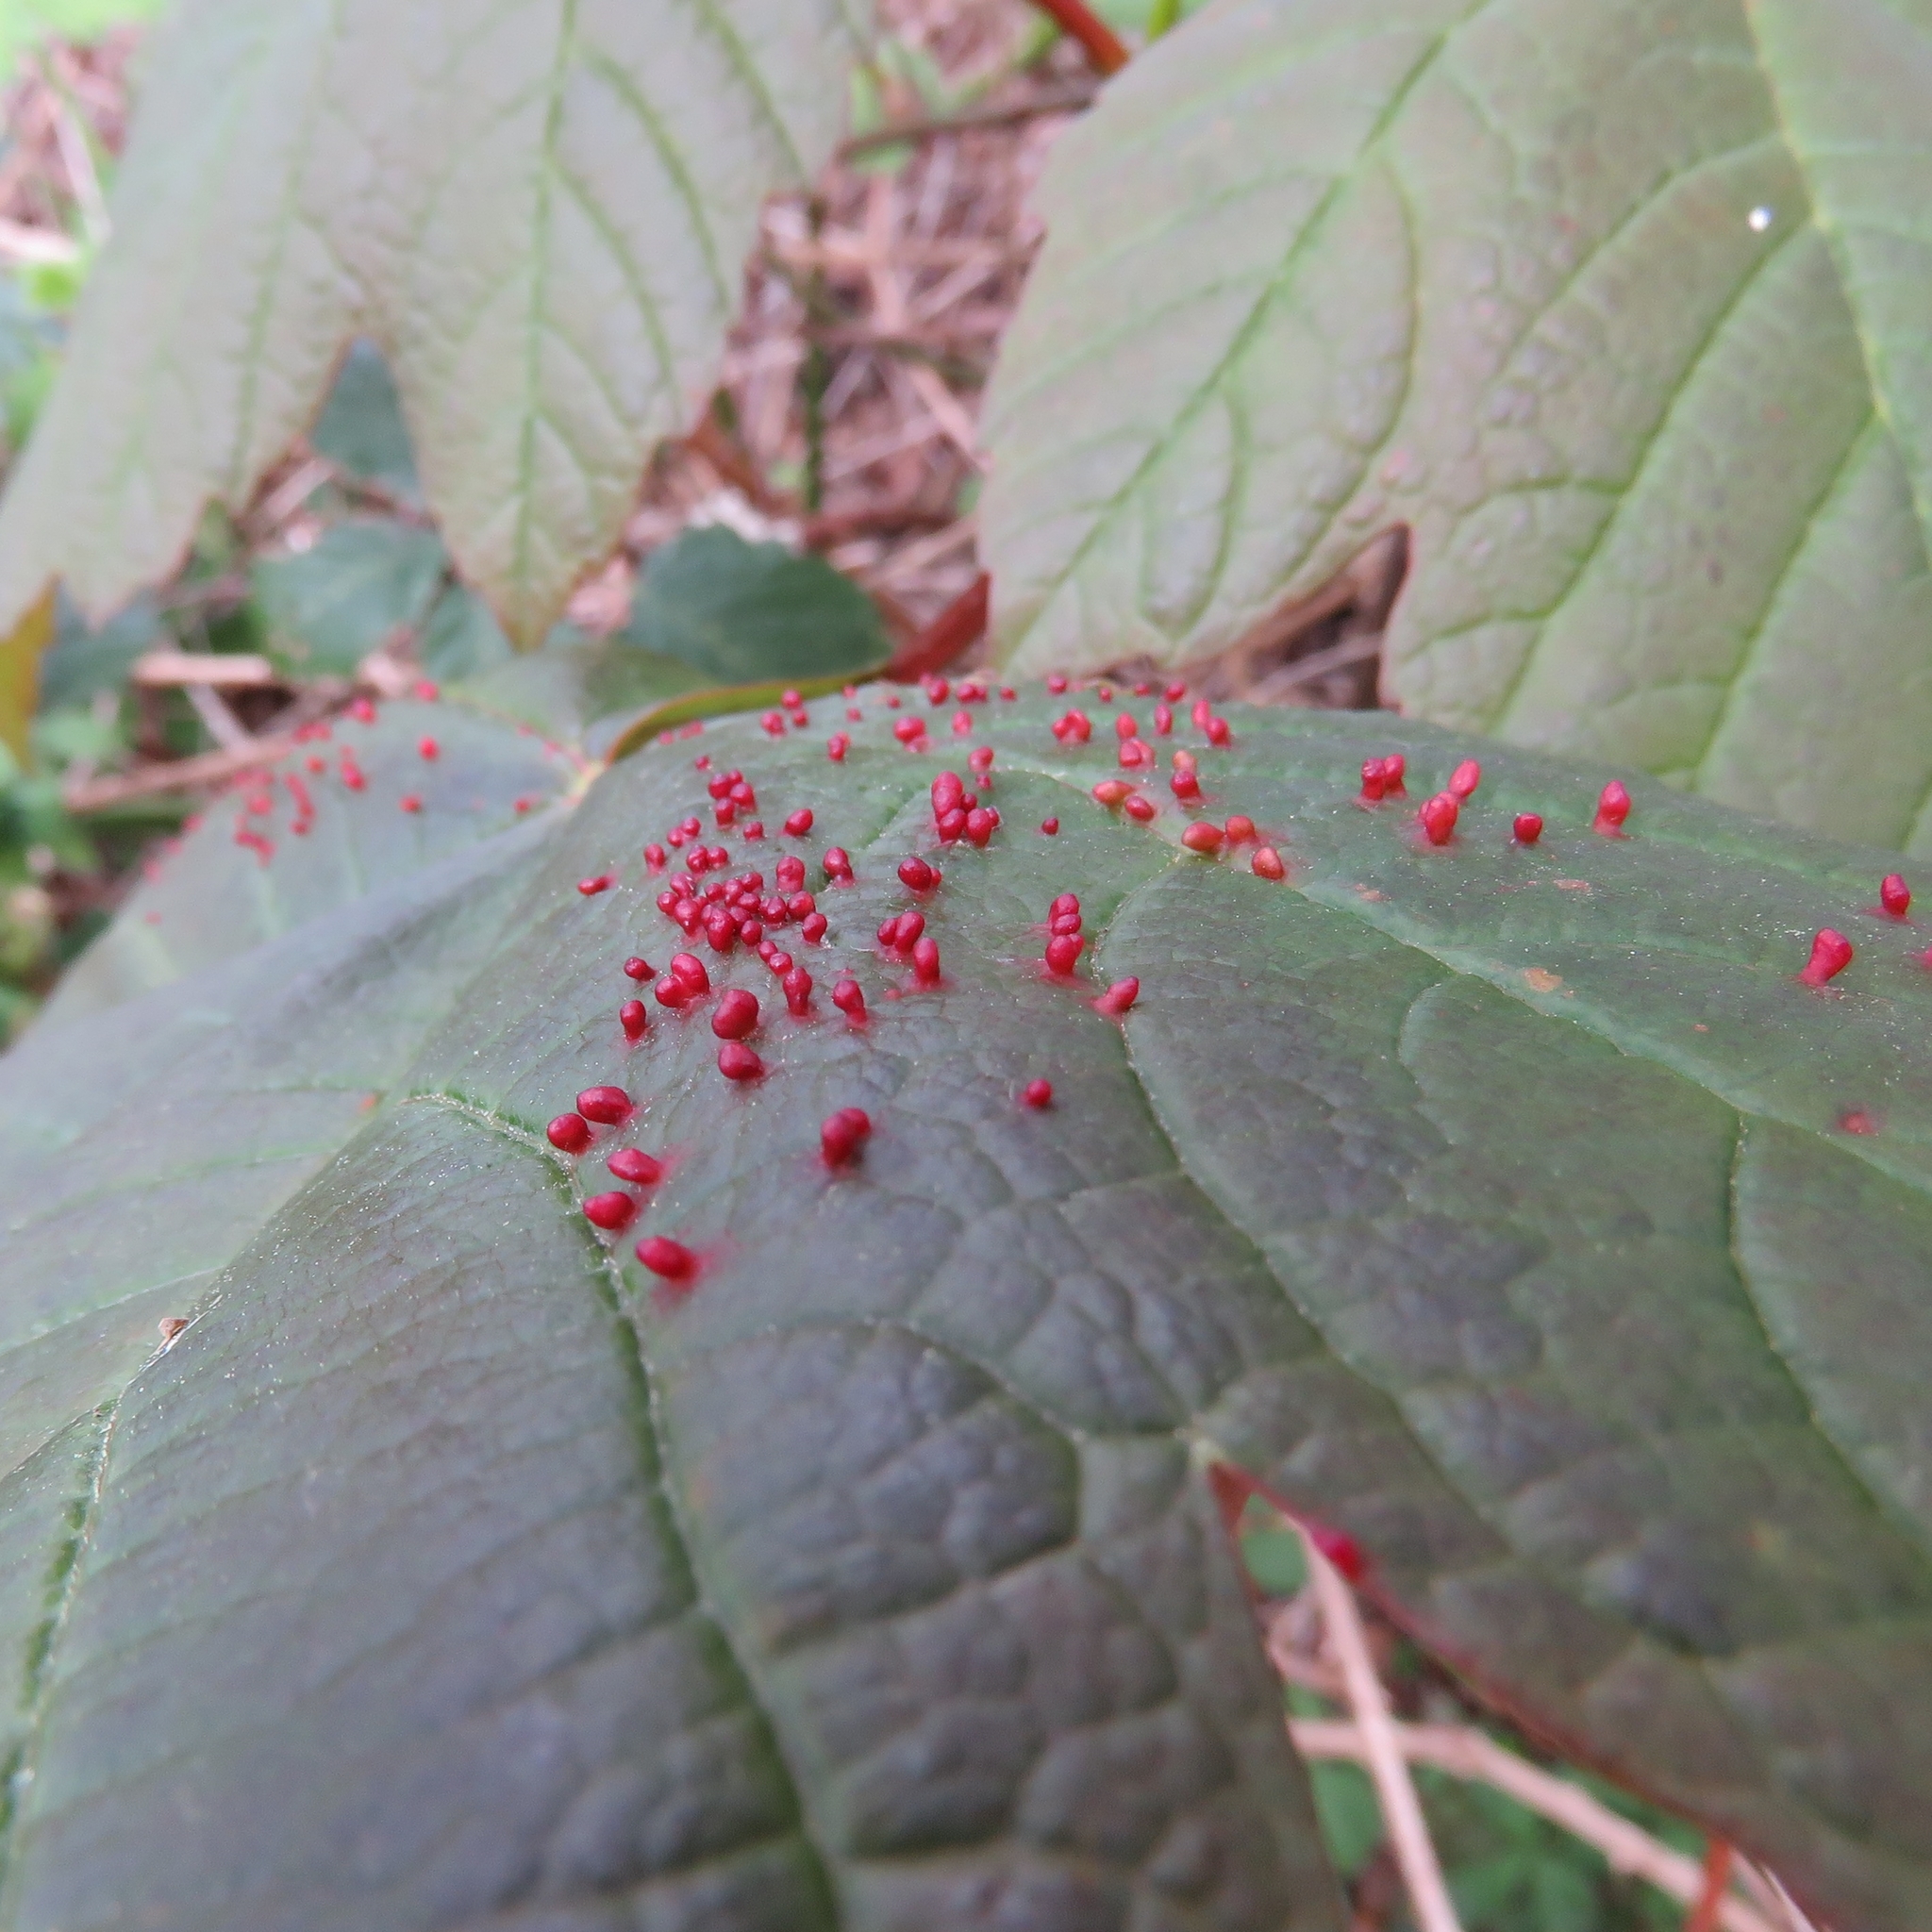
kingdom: Plantae
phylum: Tracheophyta
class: Magnoliopsida
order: Sapindales
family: Sapindaceae
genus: Acer
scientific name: Acer pseudoplatanus
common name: Sycamore
